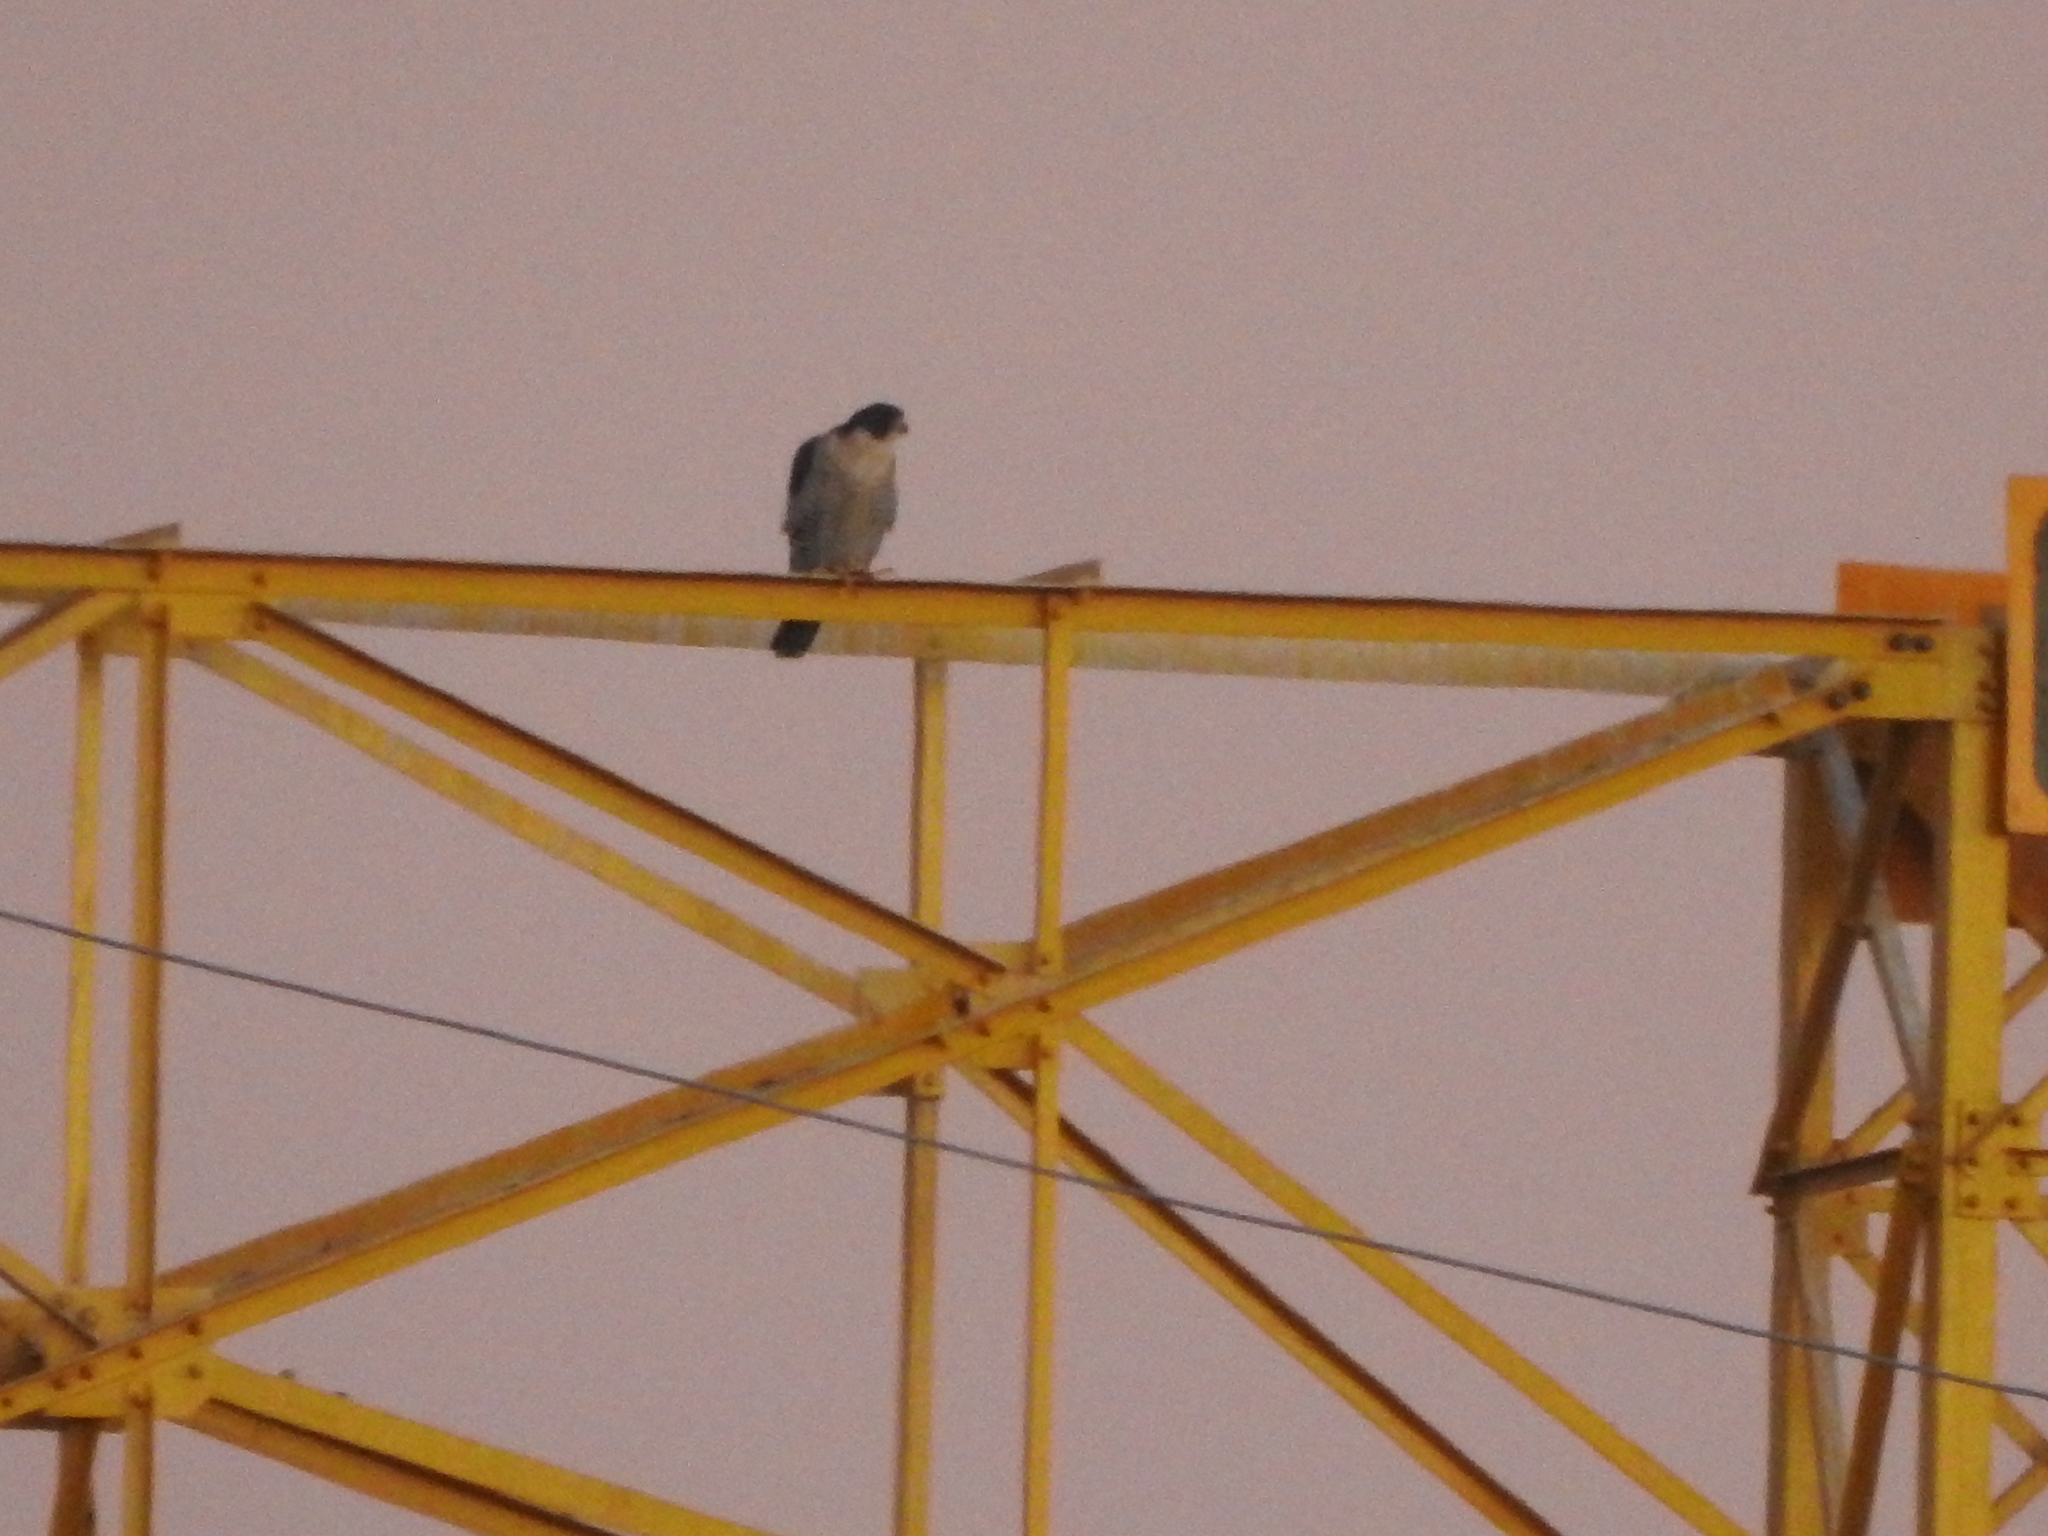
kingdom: Animalia
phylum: Chordata
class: Aves
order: Falconiformes
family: Falconidae
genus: Falco
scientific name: Falco peregrinus
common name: Peregrine falcon
